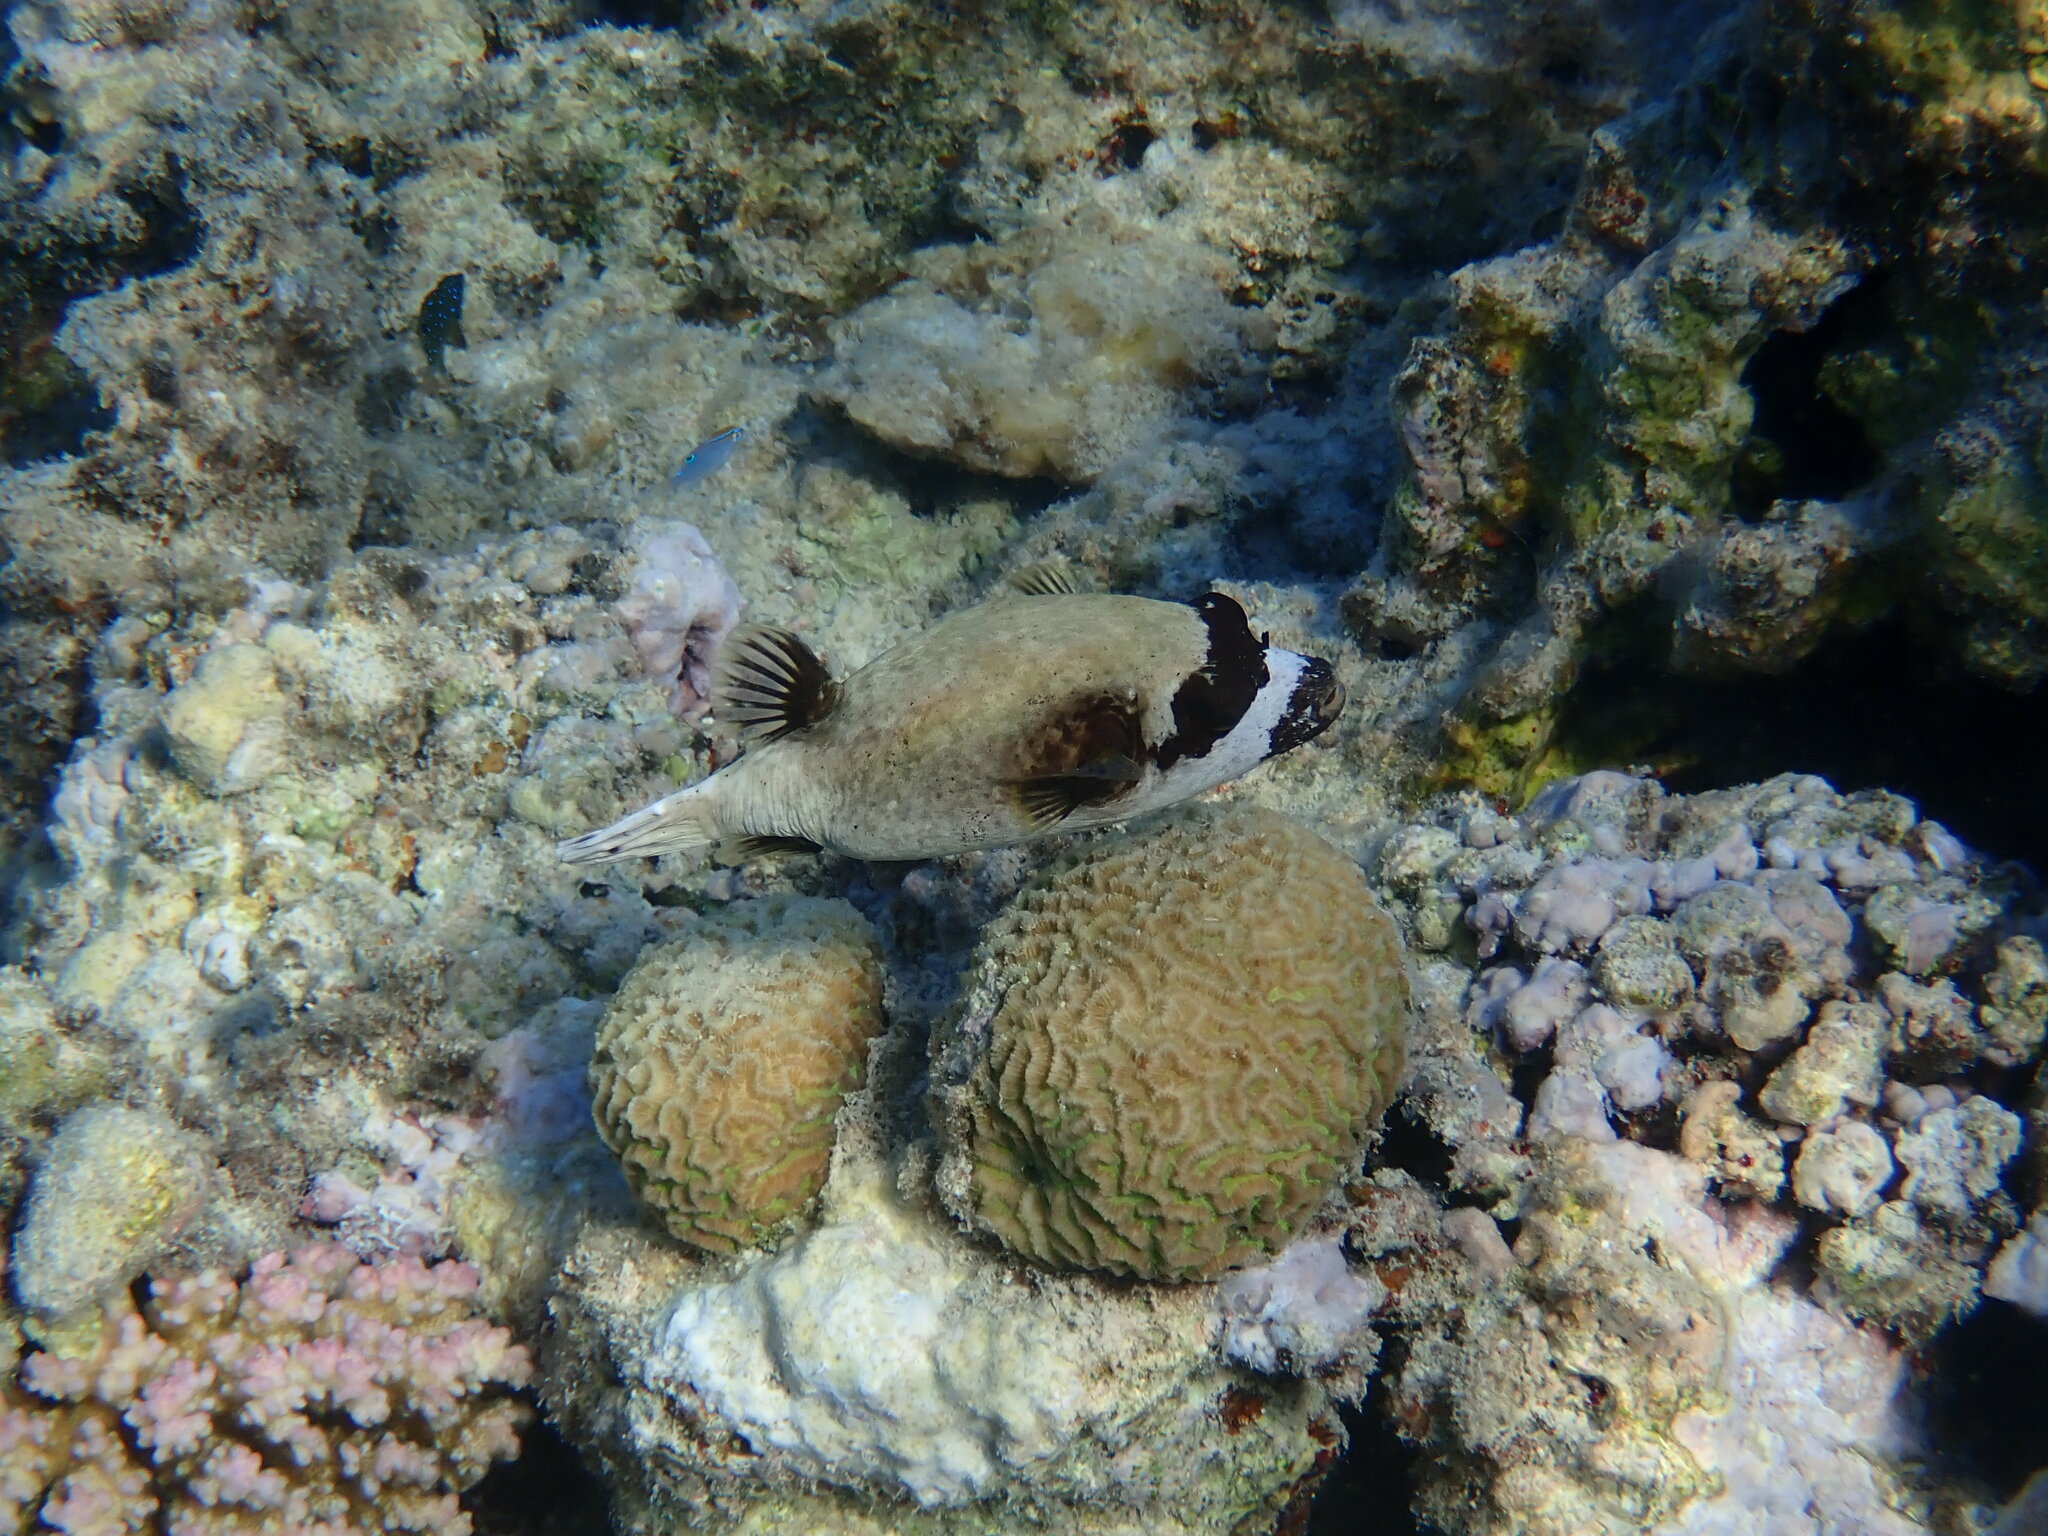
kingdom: Animalia
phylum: Chordata
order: Tetraodontiformes
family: Tetraodontidae
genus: Arothron
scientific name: Arothron diadematus
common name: Masked puffer
